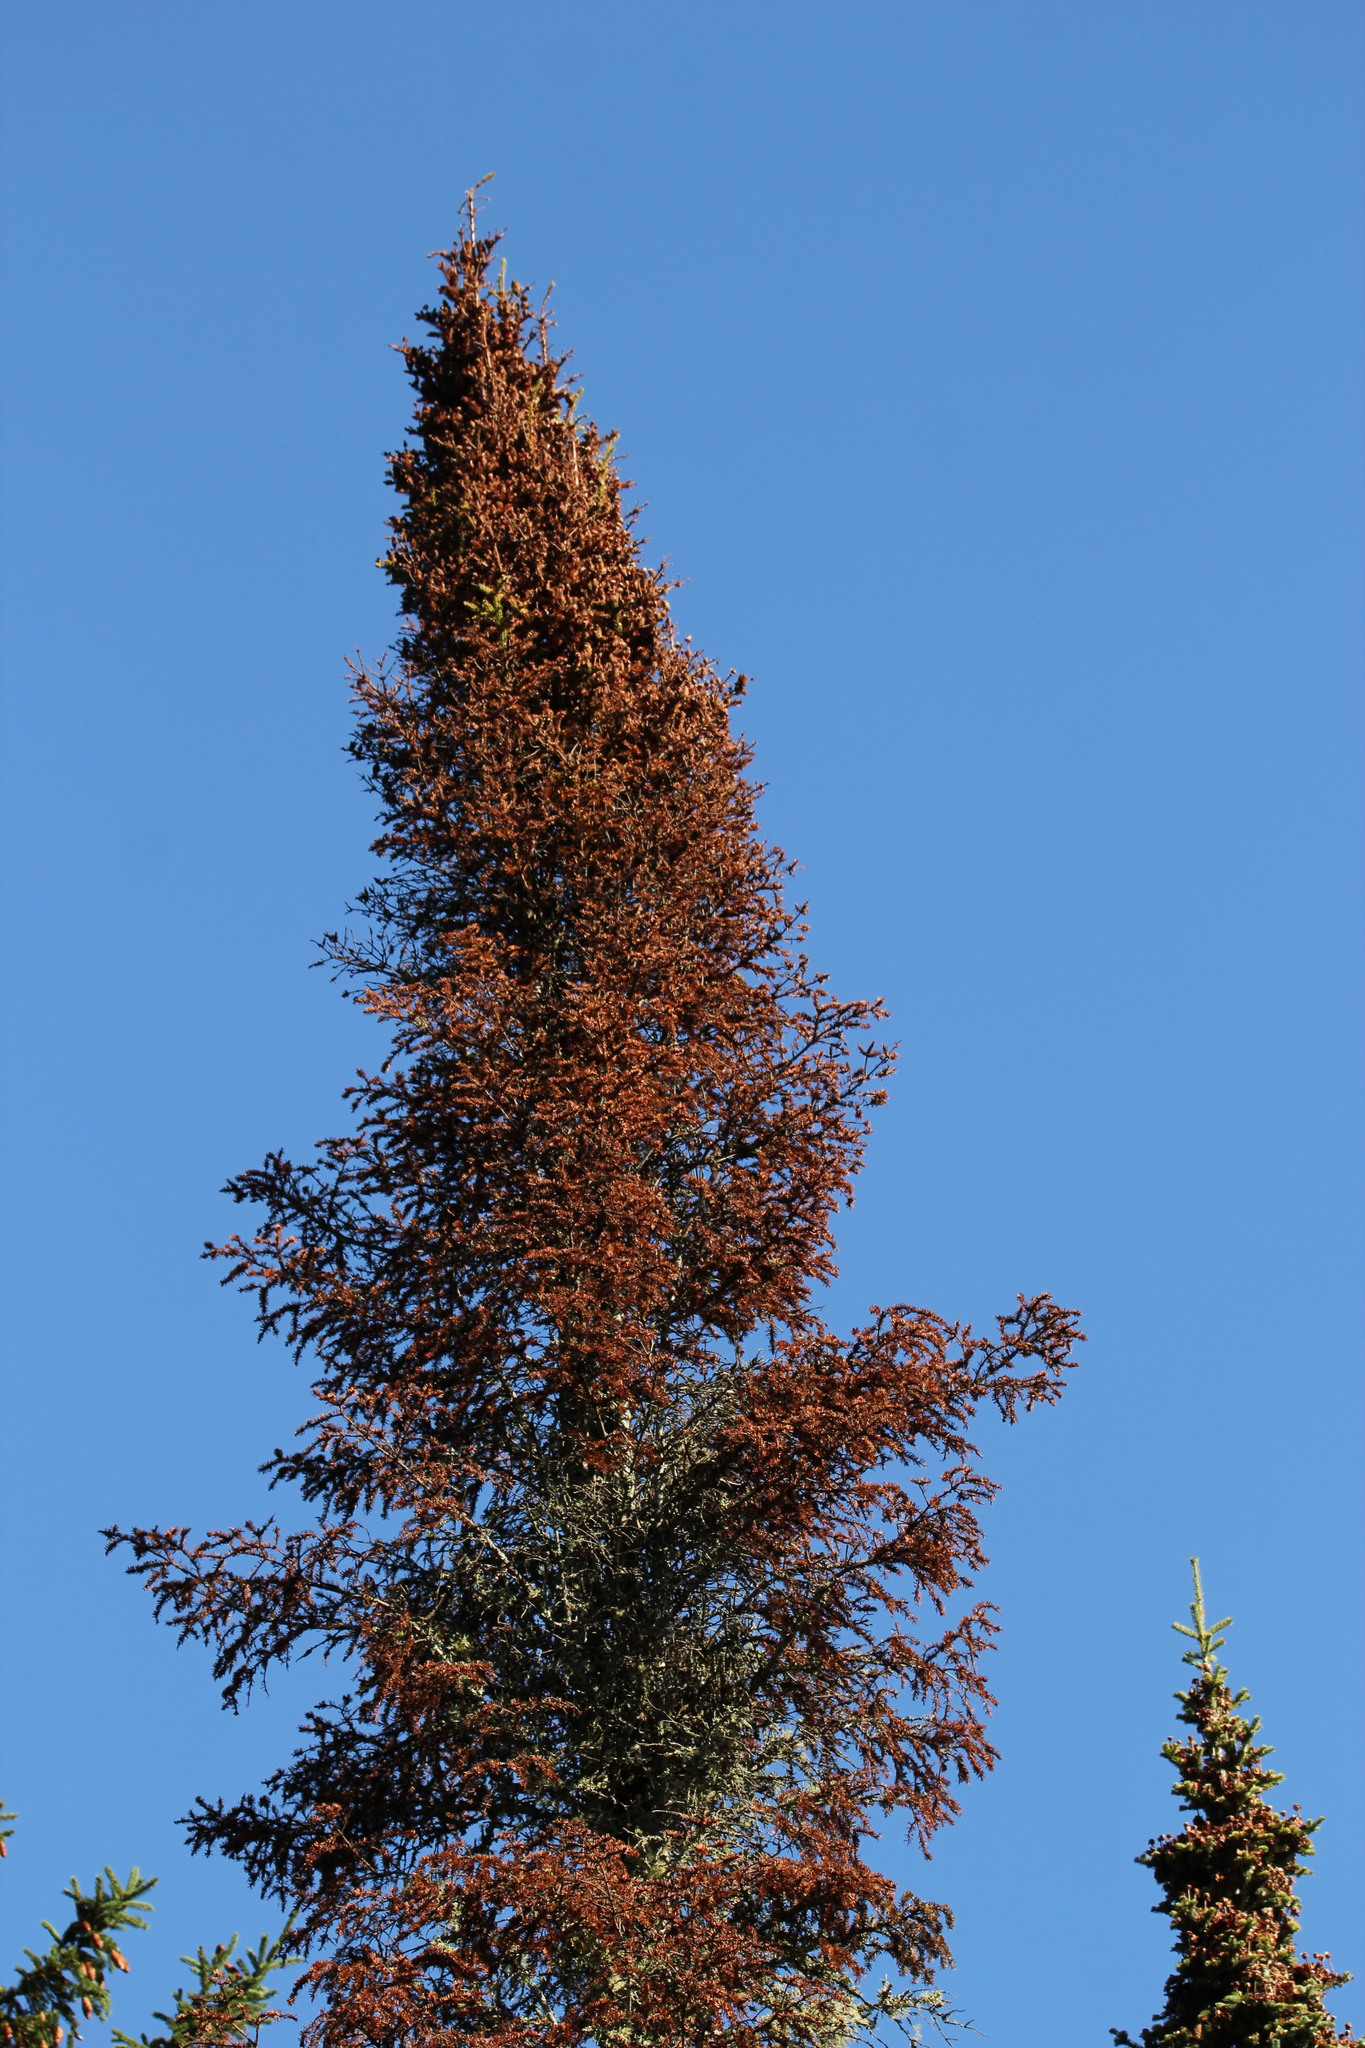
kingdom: Plantae
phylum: Tracheophyta
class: Pinopsida
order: Pinales
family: Pinaceae
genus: Picea
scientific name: Picea mariana
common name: Black spruce
